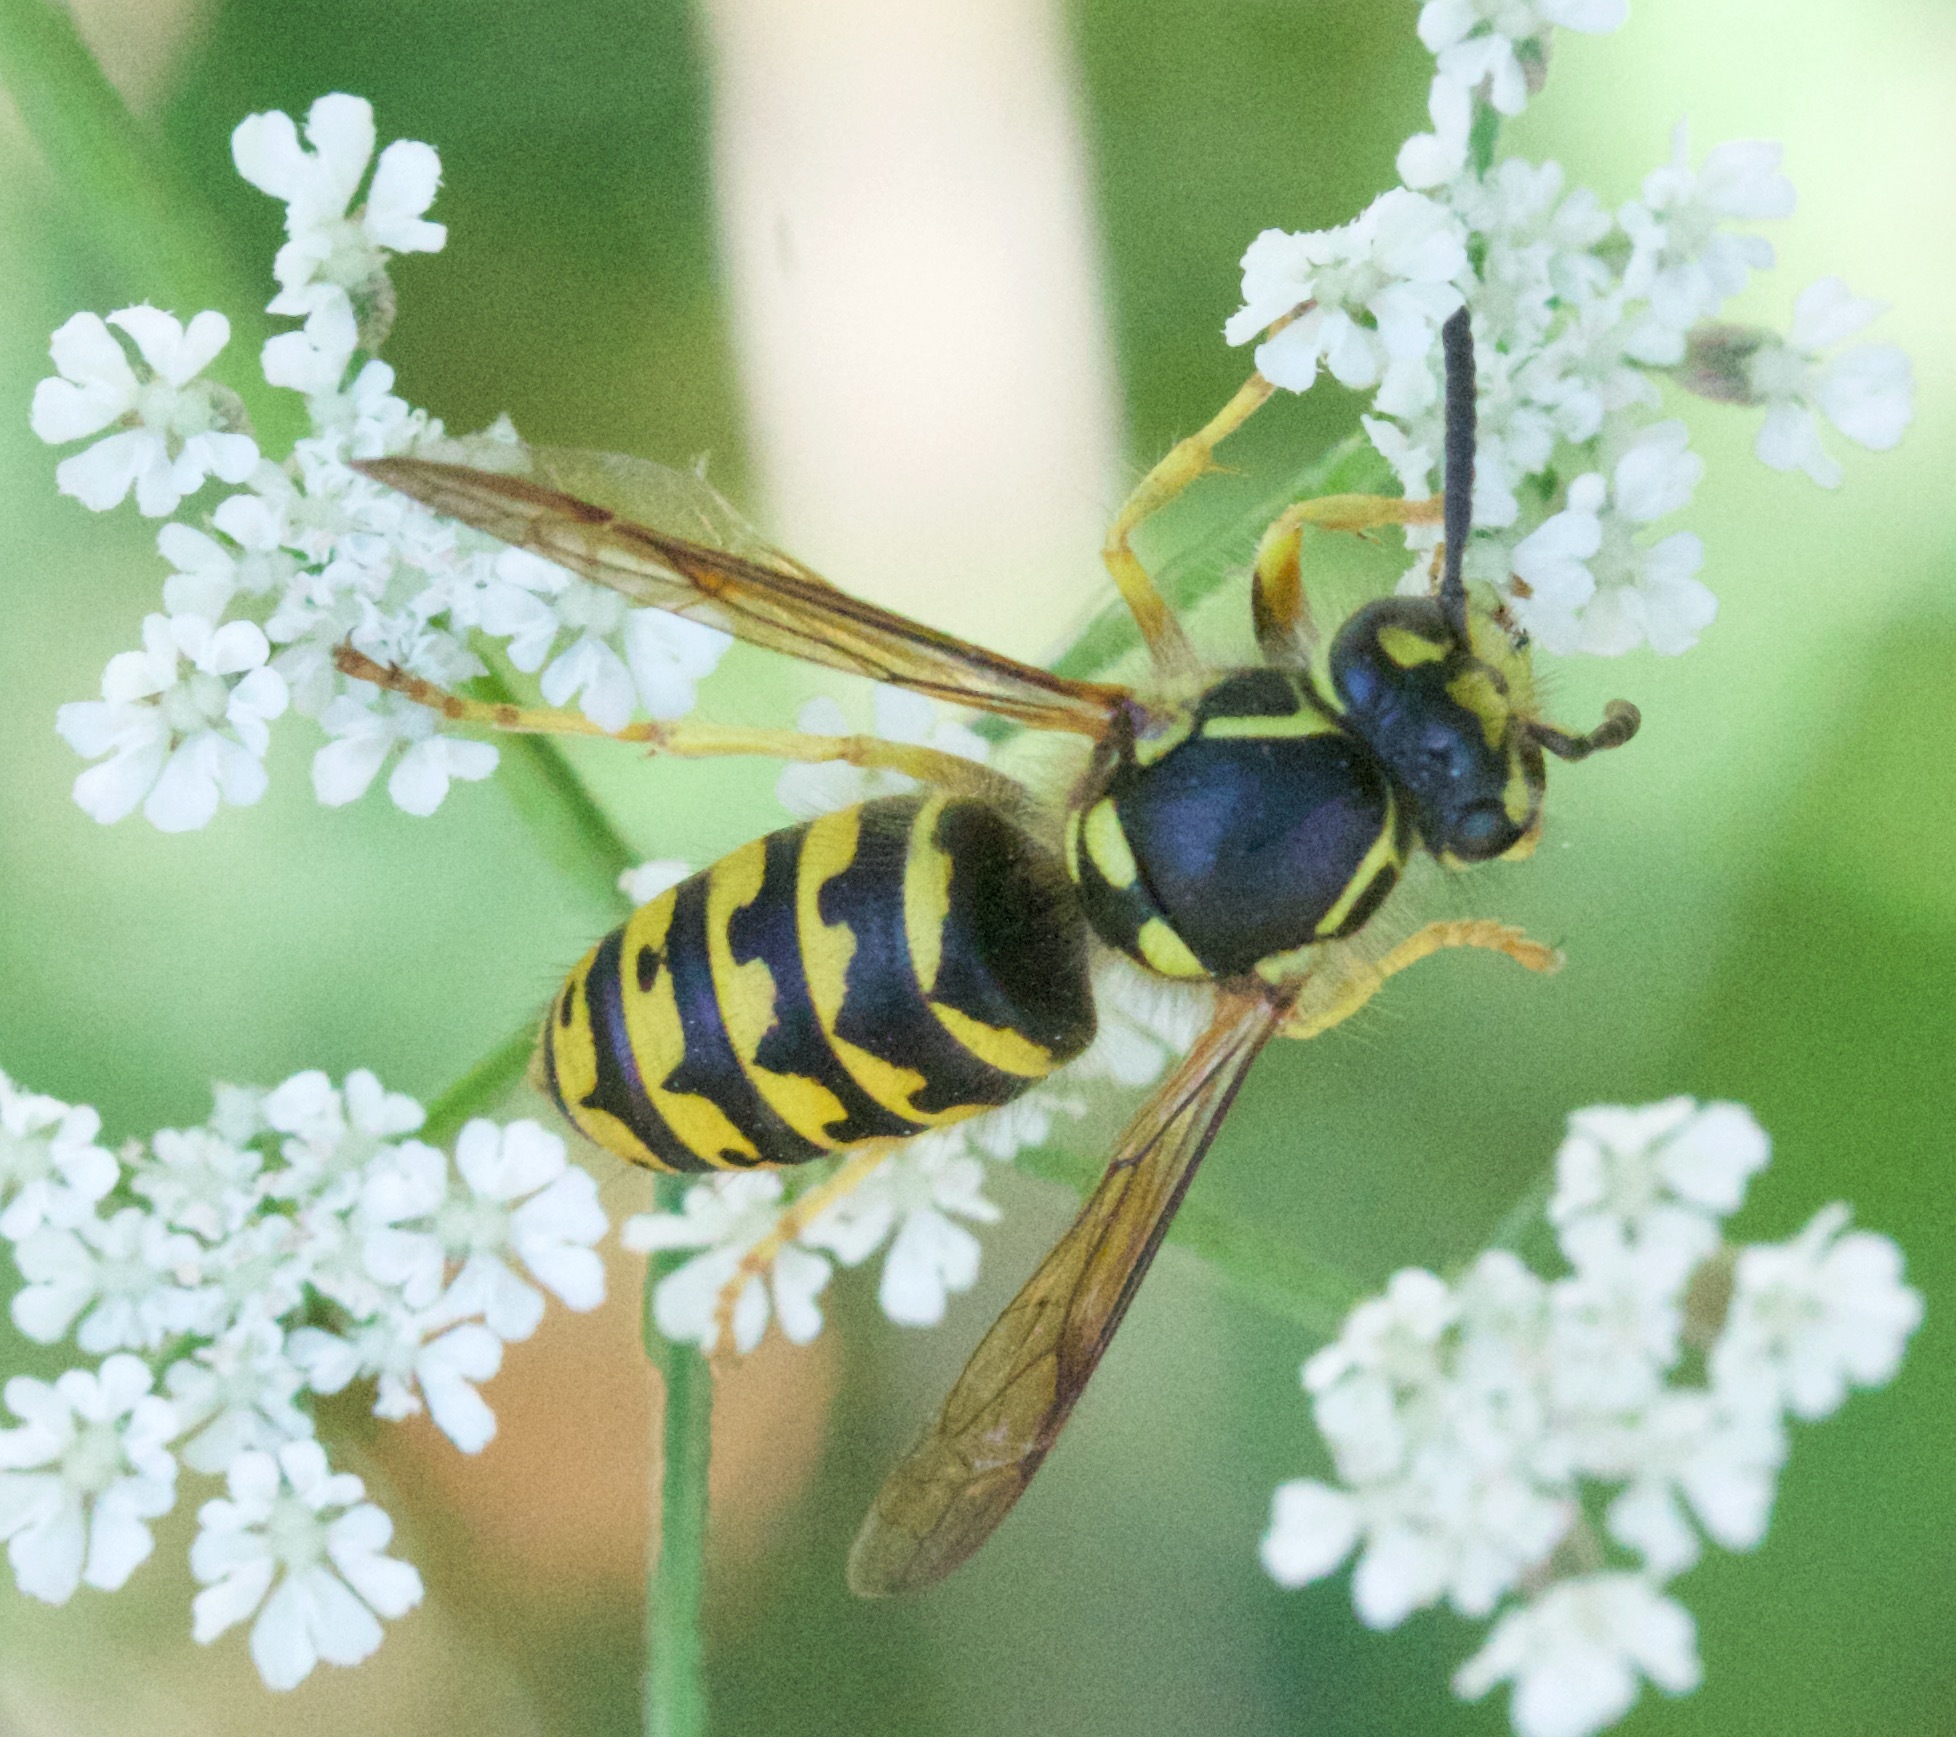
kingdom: Animalia
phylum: Arthropoda
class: Insecta
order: Hymenoptera
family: Vespidae
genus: Dolichovespula
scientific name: Dolichovespula arenaria
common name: Aerial yellowjacket
